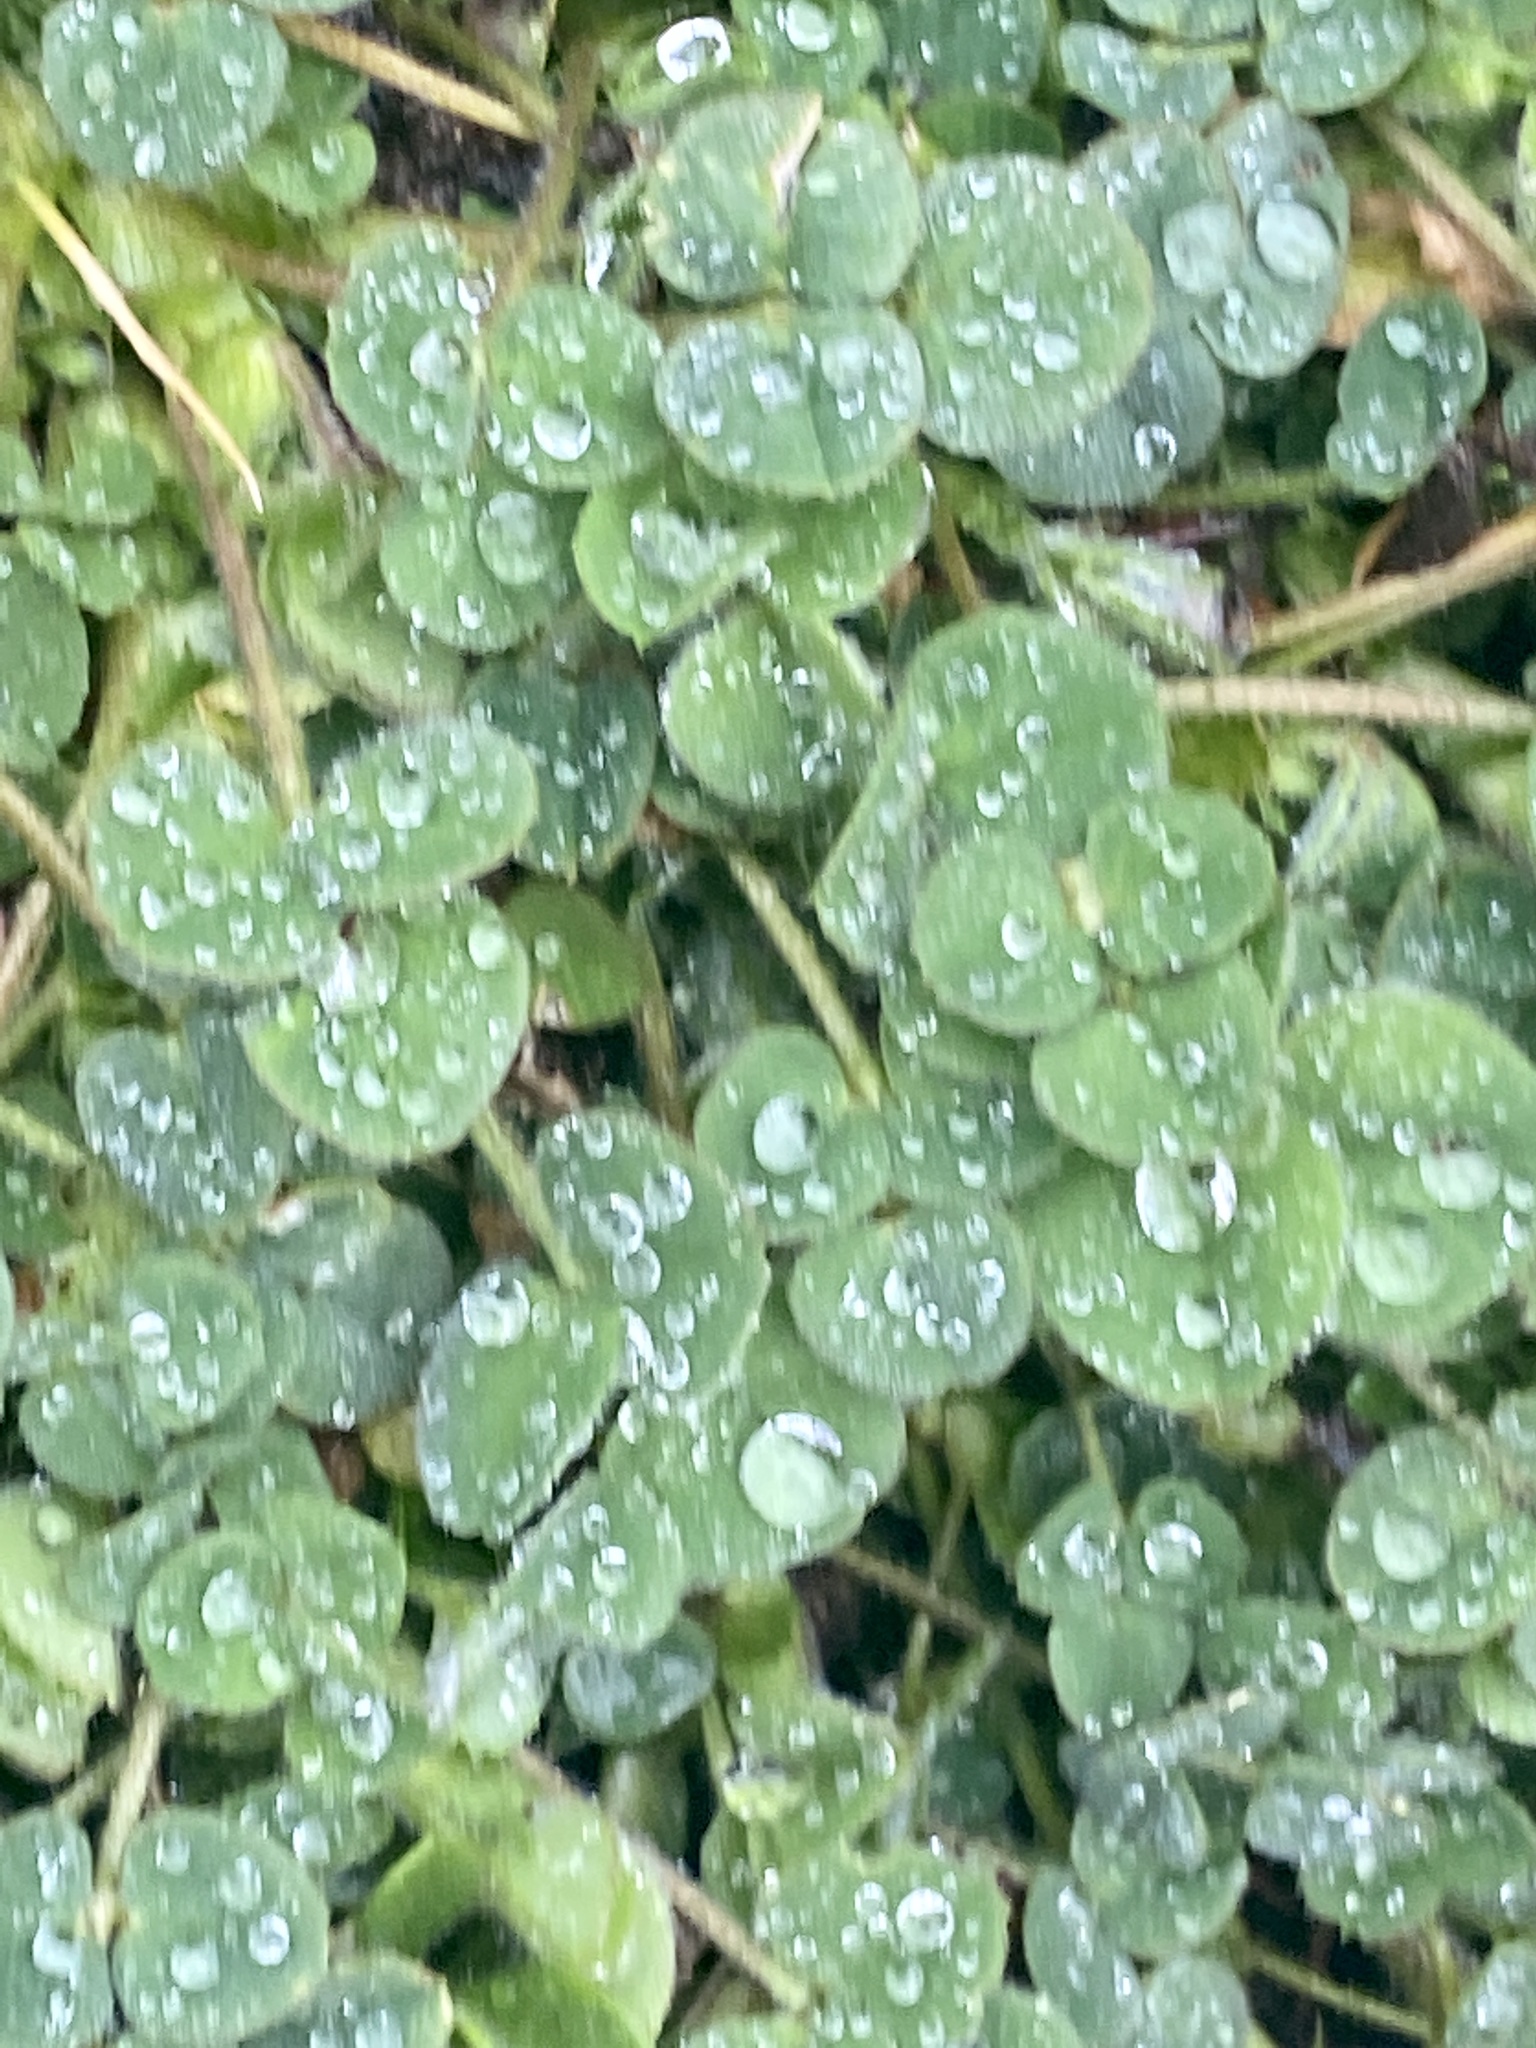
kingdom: Plantae
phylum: Tracheophyta
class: Magnoliopsida
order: Fabales
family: Fabaceae
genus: Medicago
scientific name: Medicago lupulina
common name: Black medick
